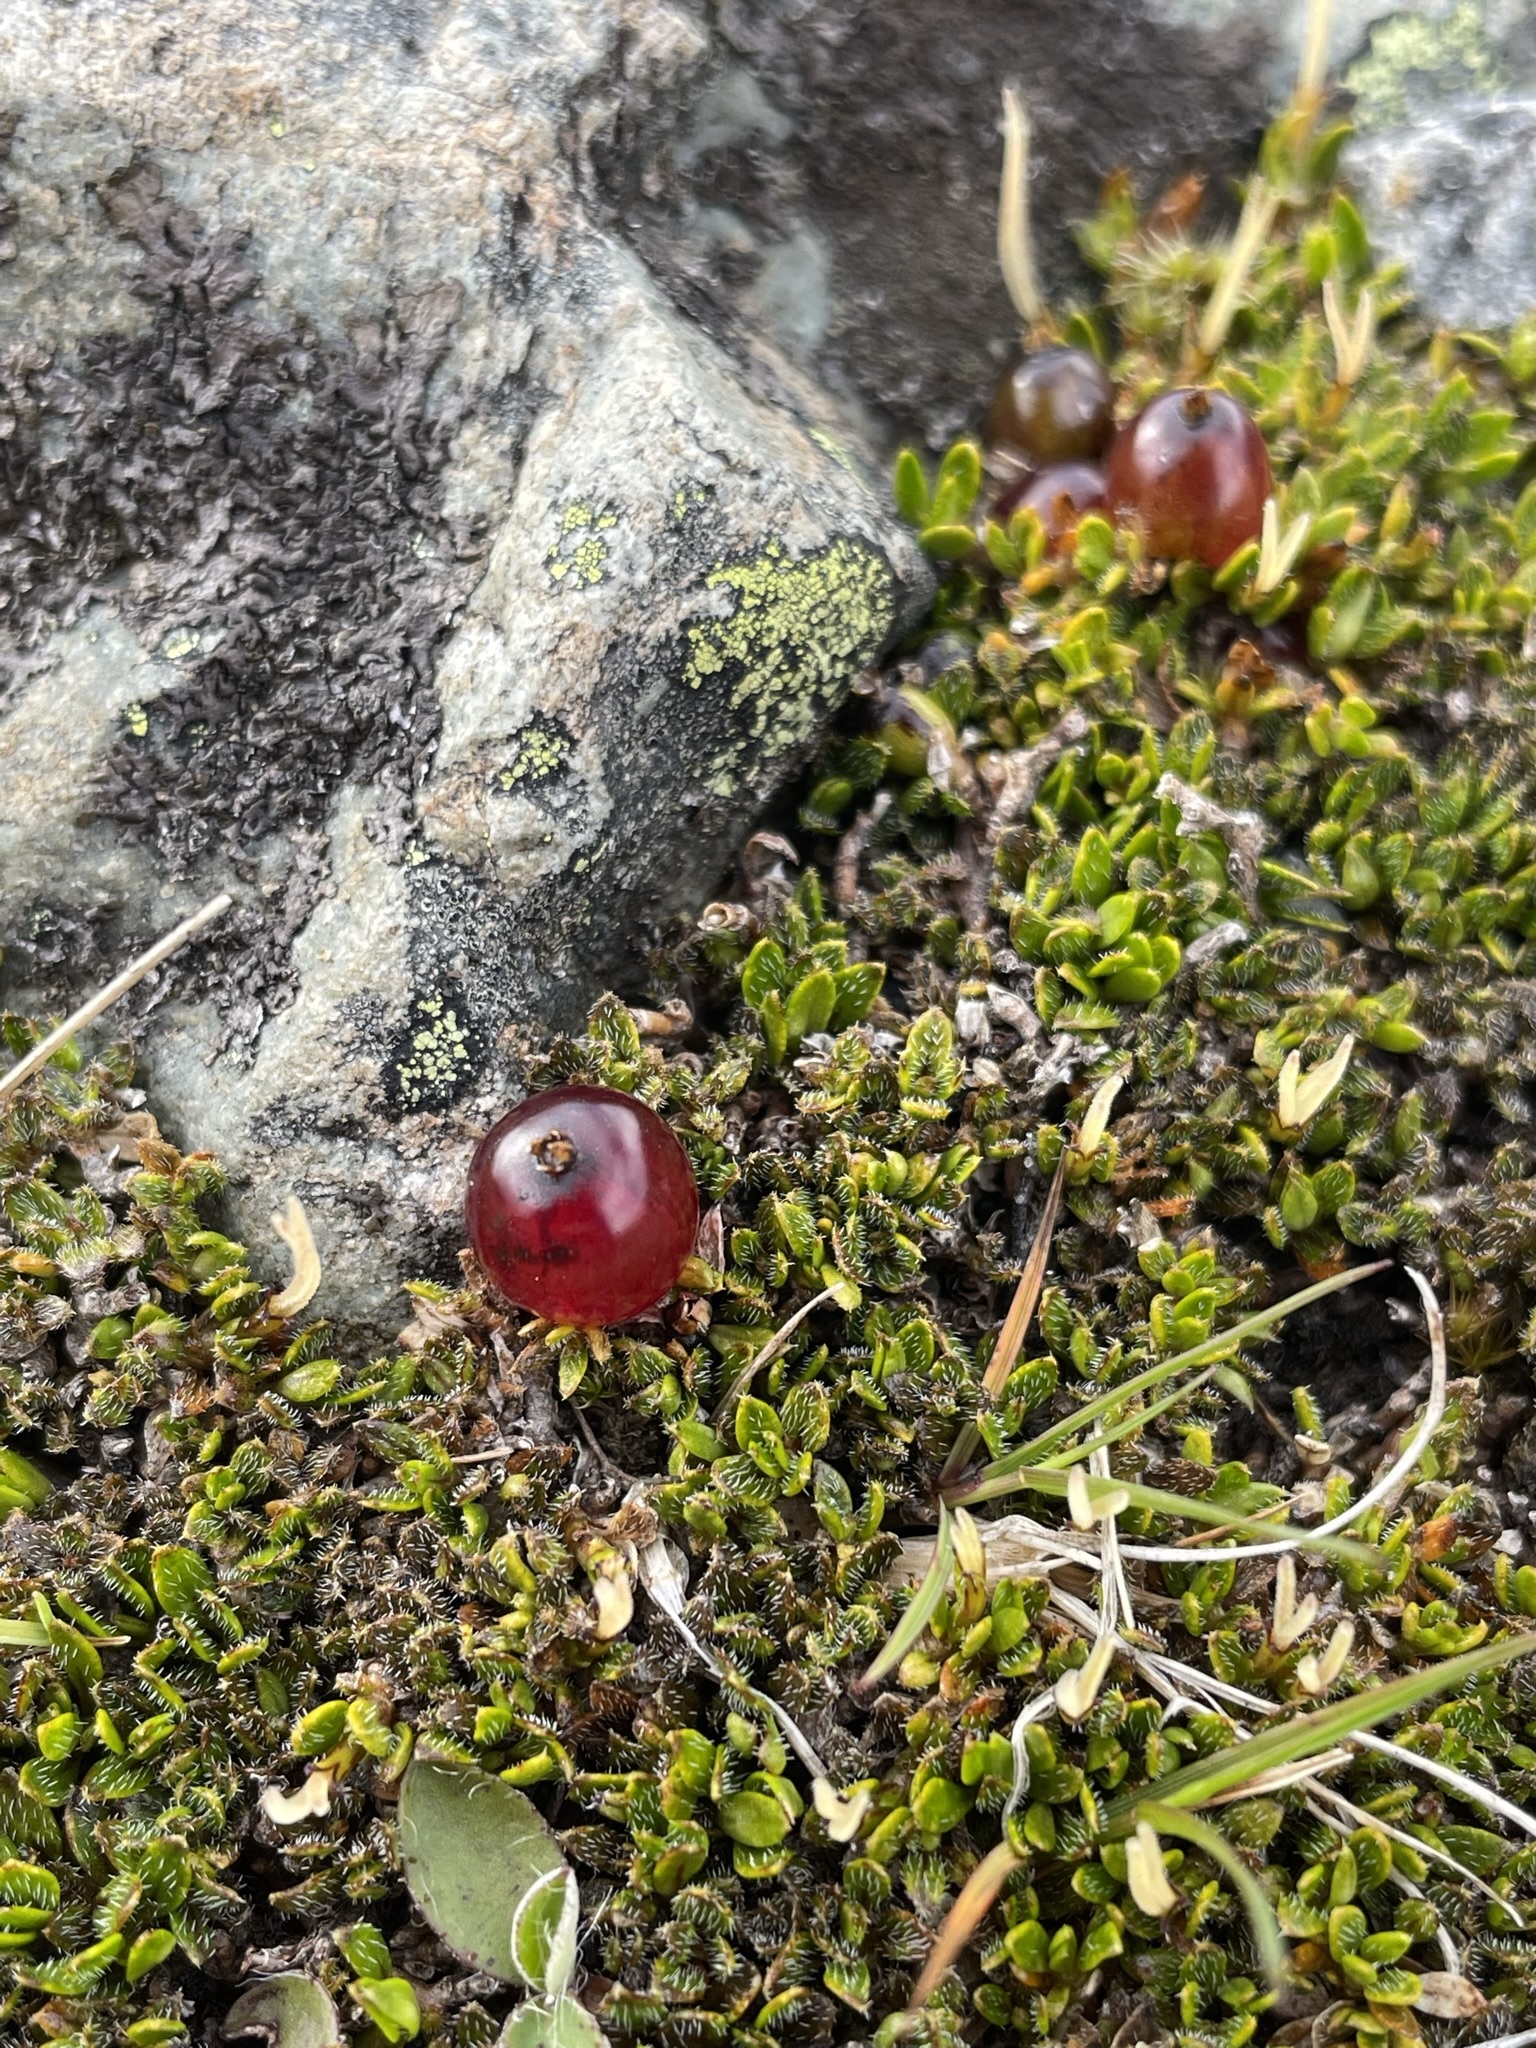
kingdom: Plantae
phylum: Tracheophyta
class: Magnoliopsida
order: Gentianales
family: Rubiaceae
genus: Coprosma
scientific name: Coprosma atropurpurea
